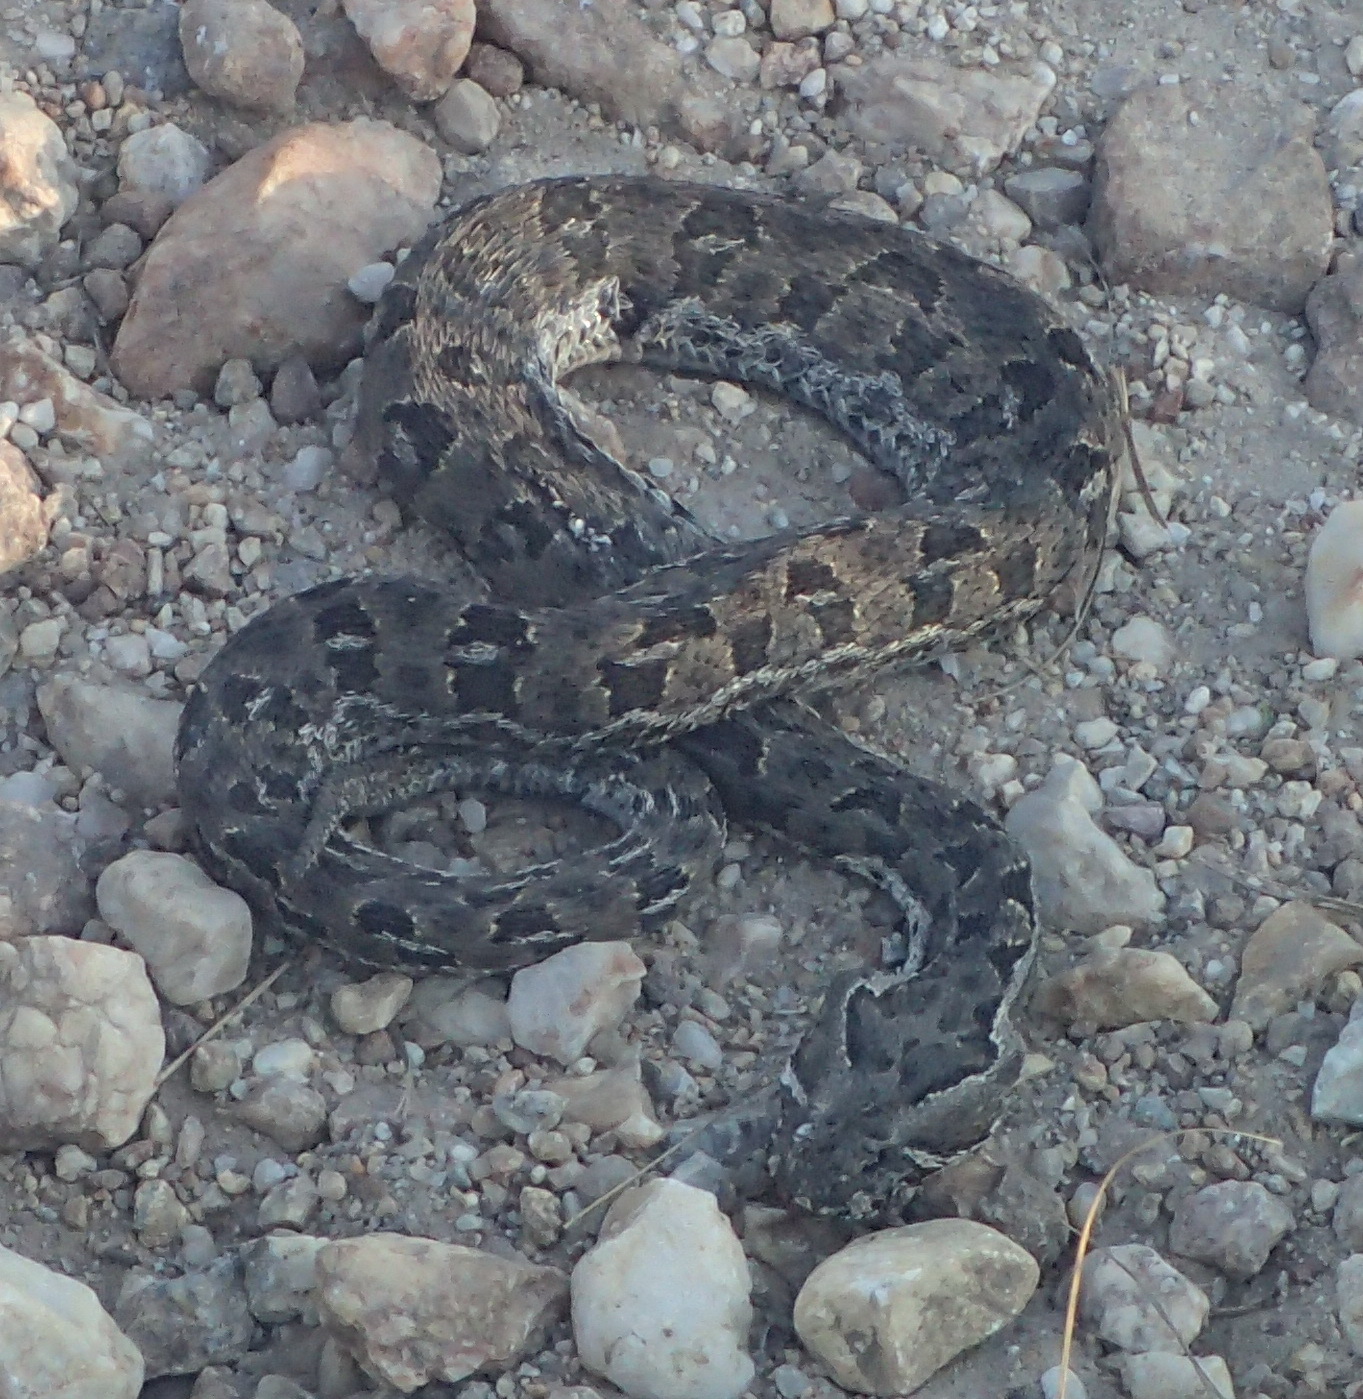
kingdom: Animalia
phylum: Chordata
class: Squamata
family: Viperidae
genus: Bitis
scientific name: Bitis atropos
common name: Mountain adder
